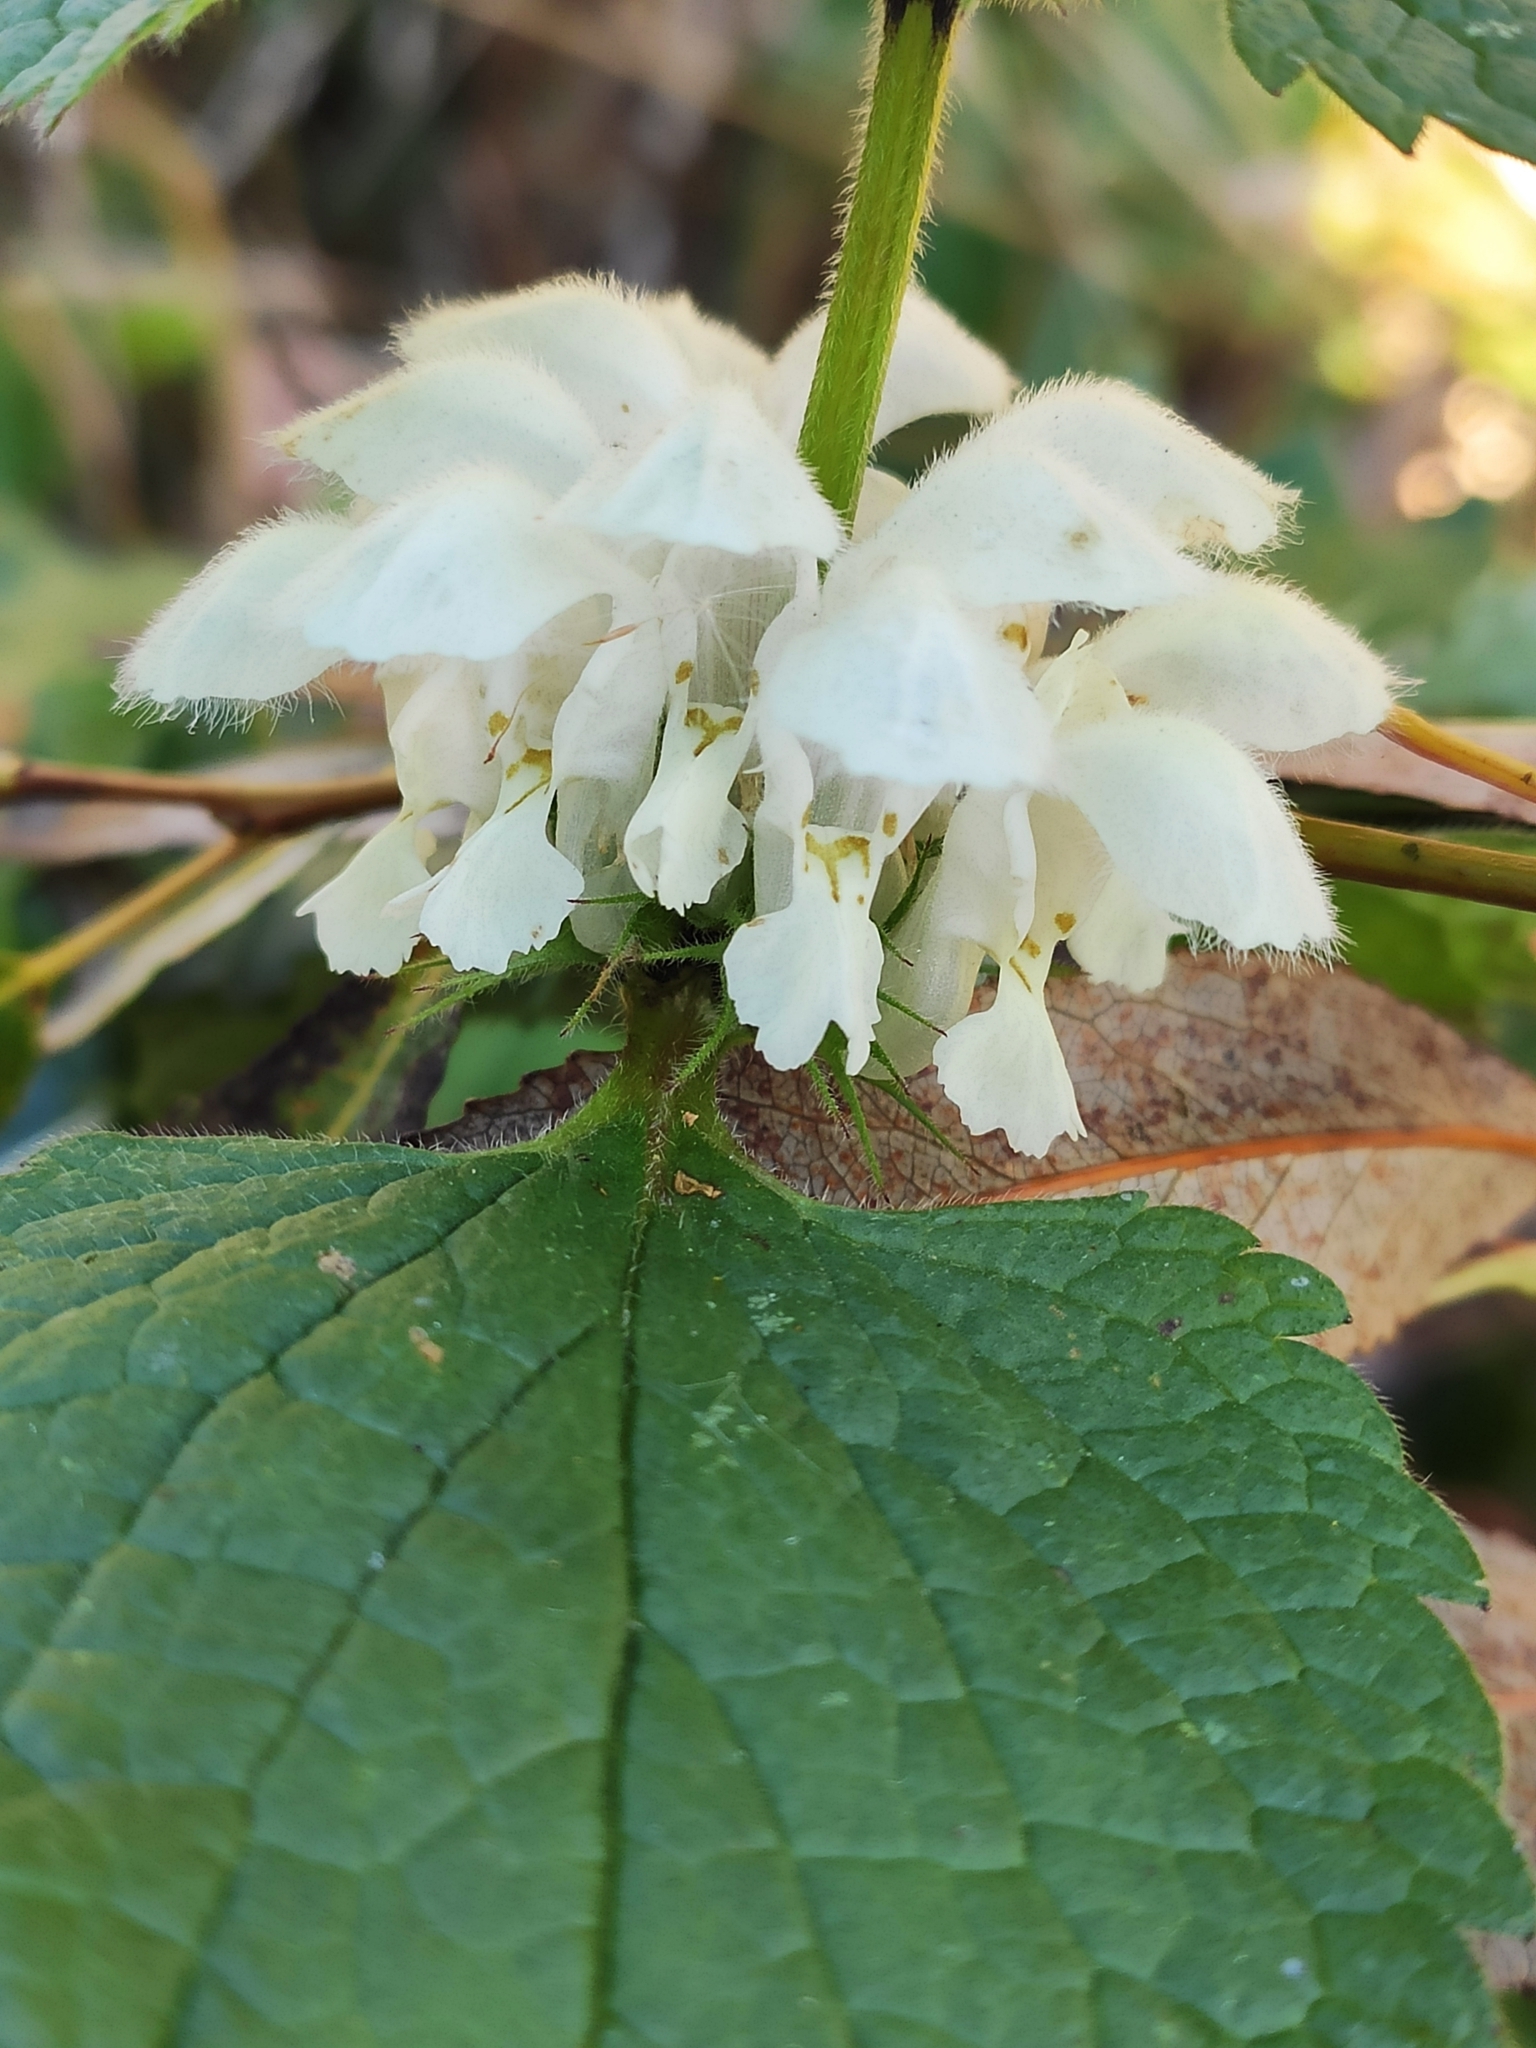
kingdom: Plantae
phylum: Tracheophyta
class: Magnoliopsida
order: Lamiales
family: Lamiaceae
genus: Lamium
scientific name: Lamium album
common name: White dead-nettle
